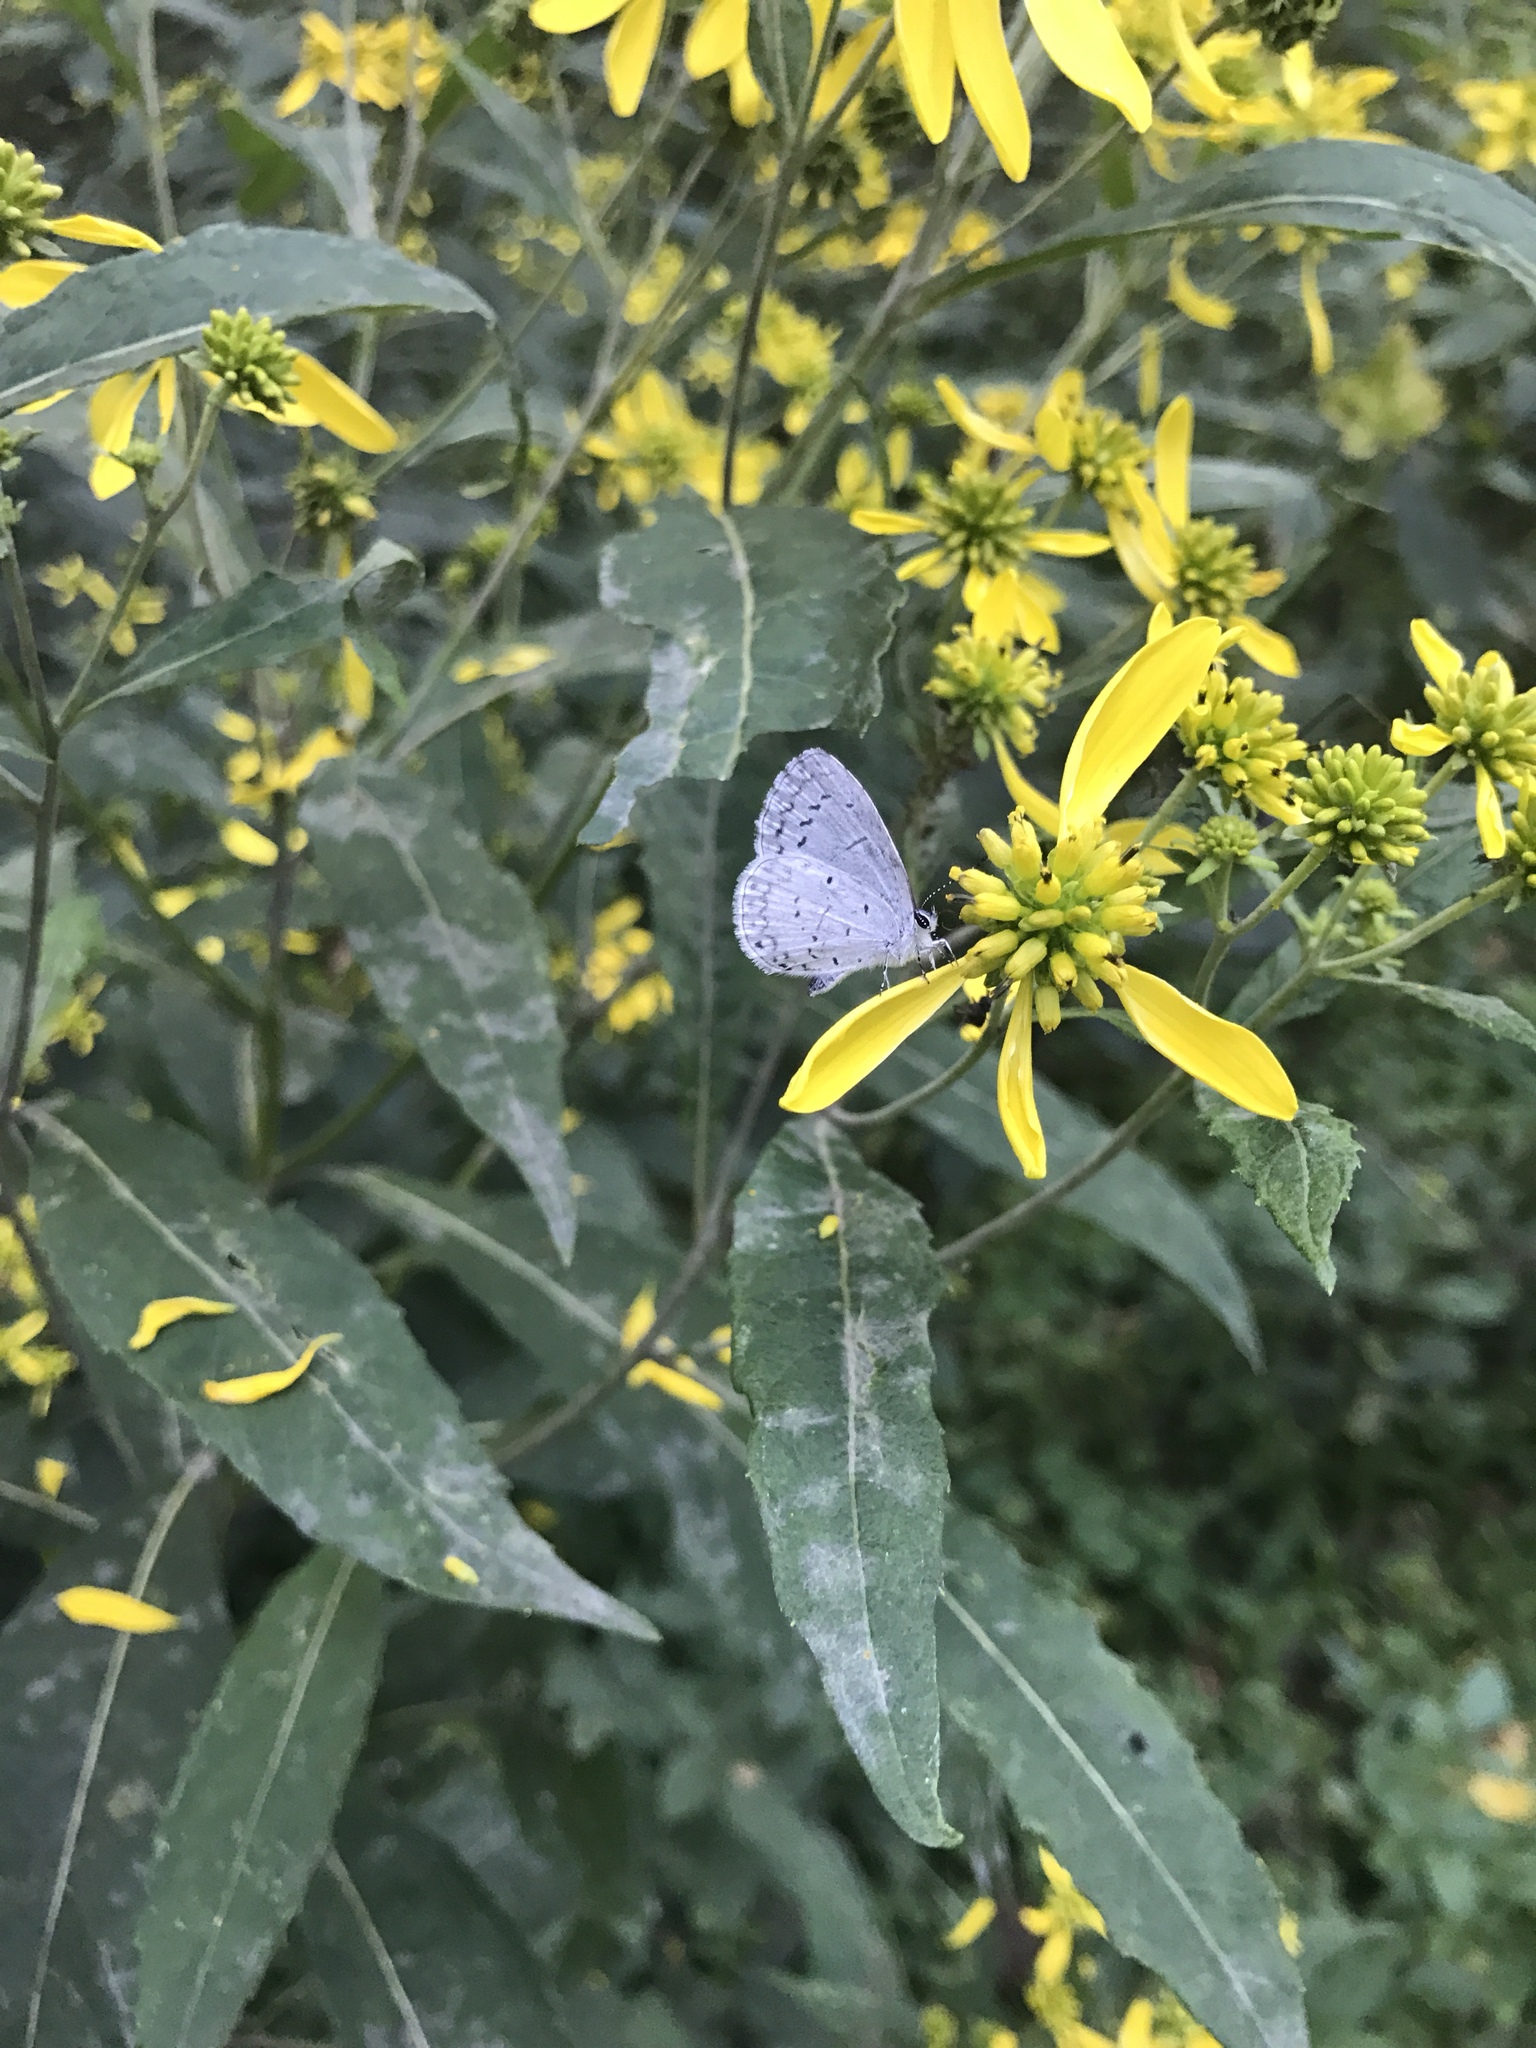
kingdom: Animalia
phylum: Arthropoda
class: Insecta
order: Lepidoptera
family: Lycaenidae
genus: Cyaniris
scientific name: Cyaniris neglecta
